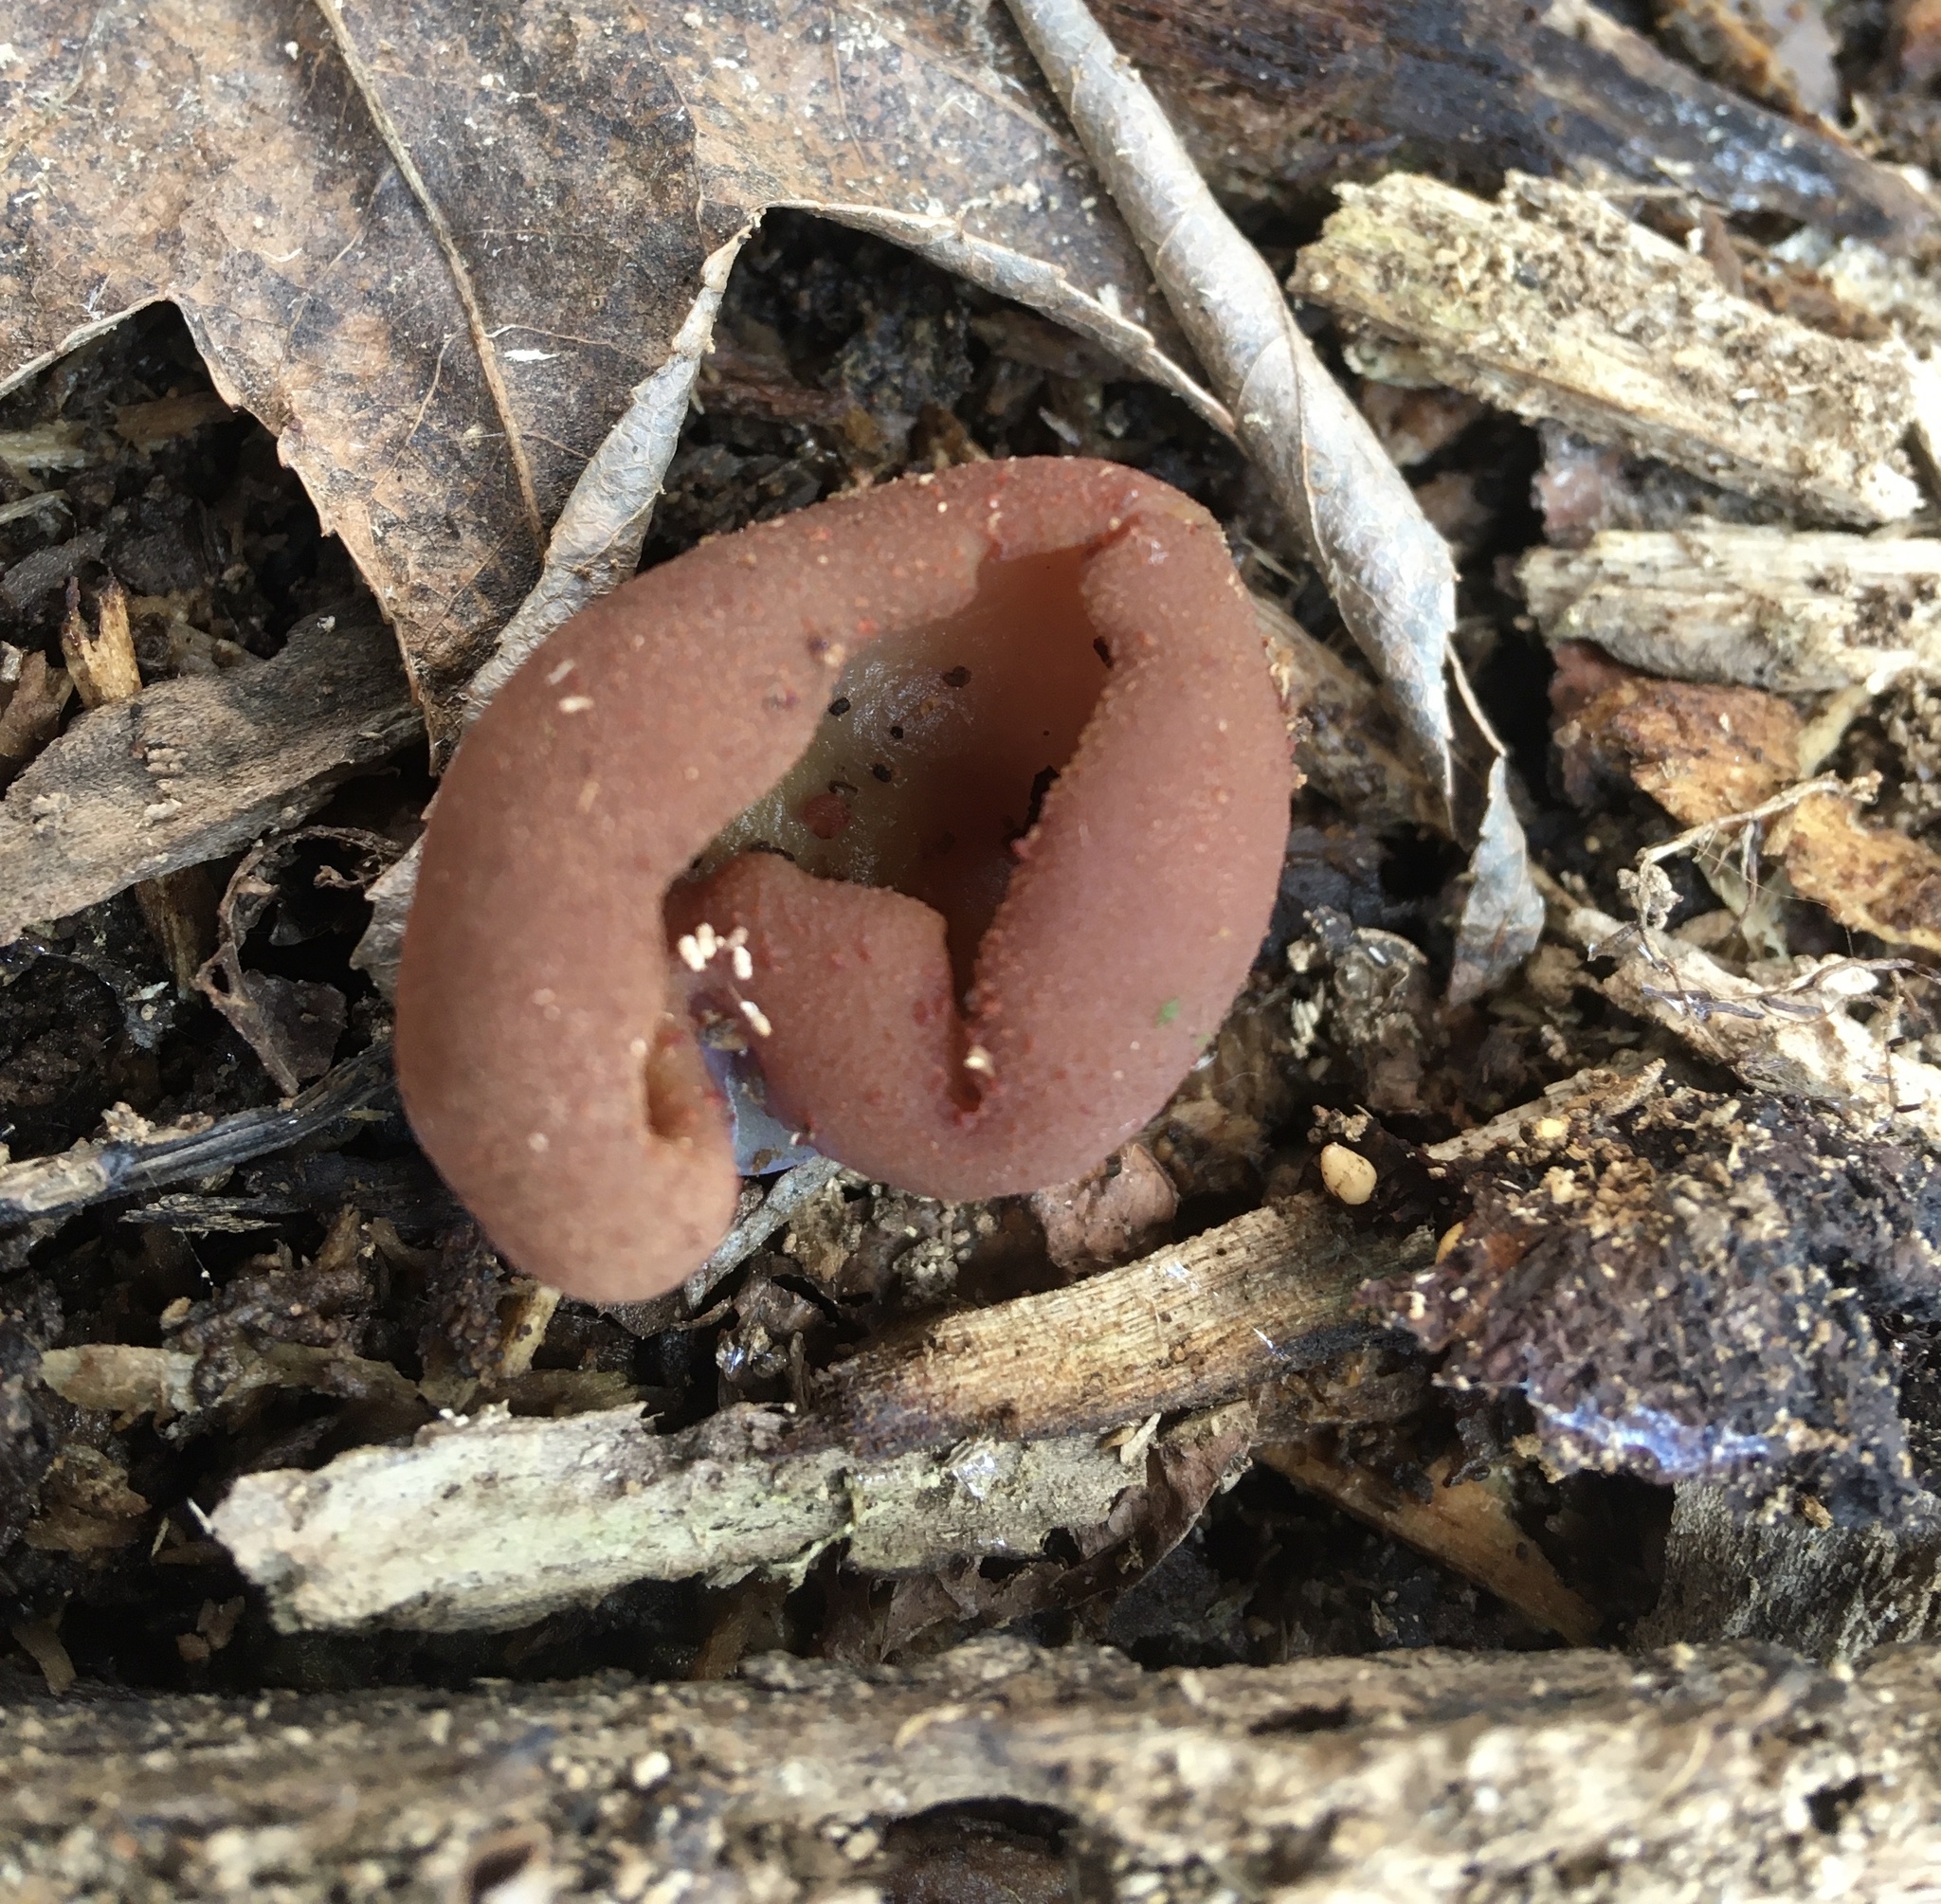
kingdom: Fungi
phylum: Ascomycota
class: Pezizomycetes
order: Pezizales
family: Pezizaceae
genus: Phylloscypha
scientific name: Phylloscypha phyllogena
